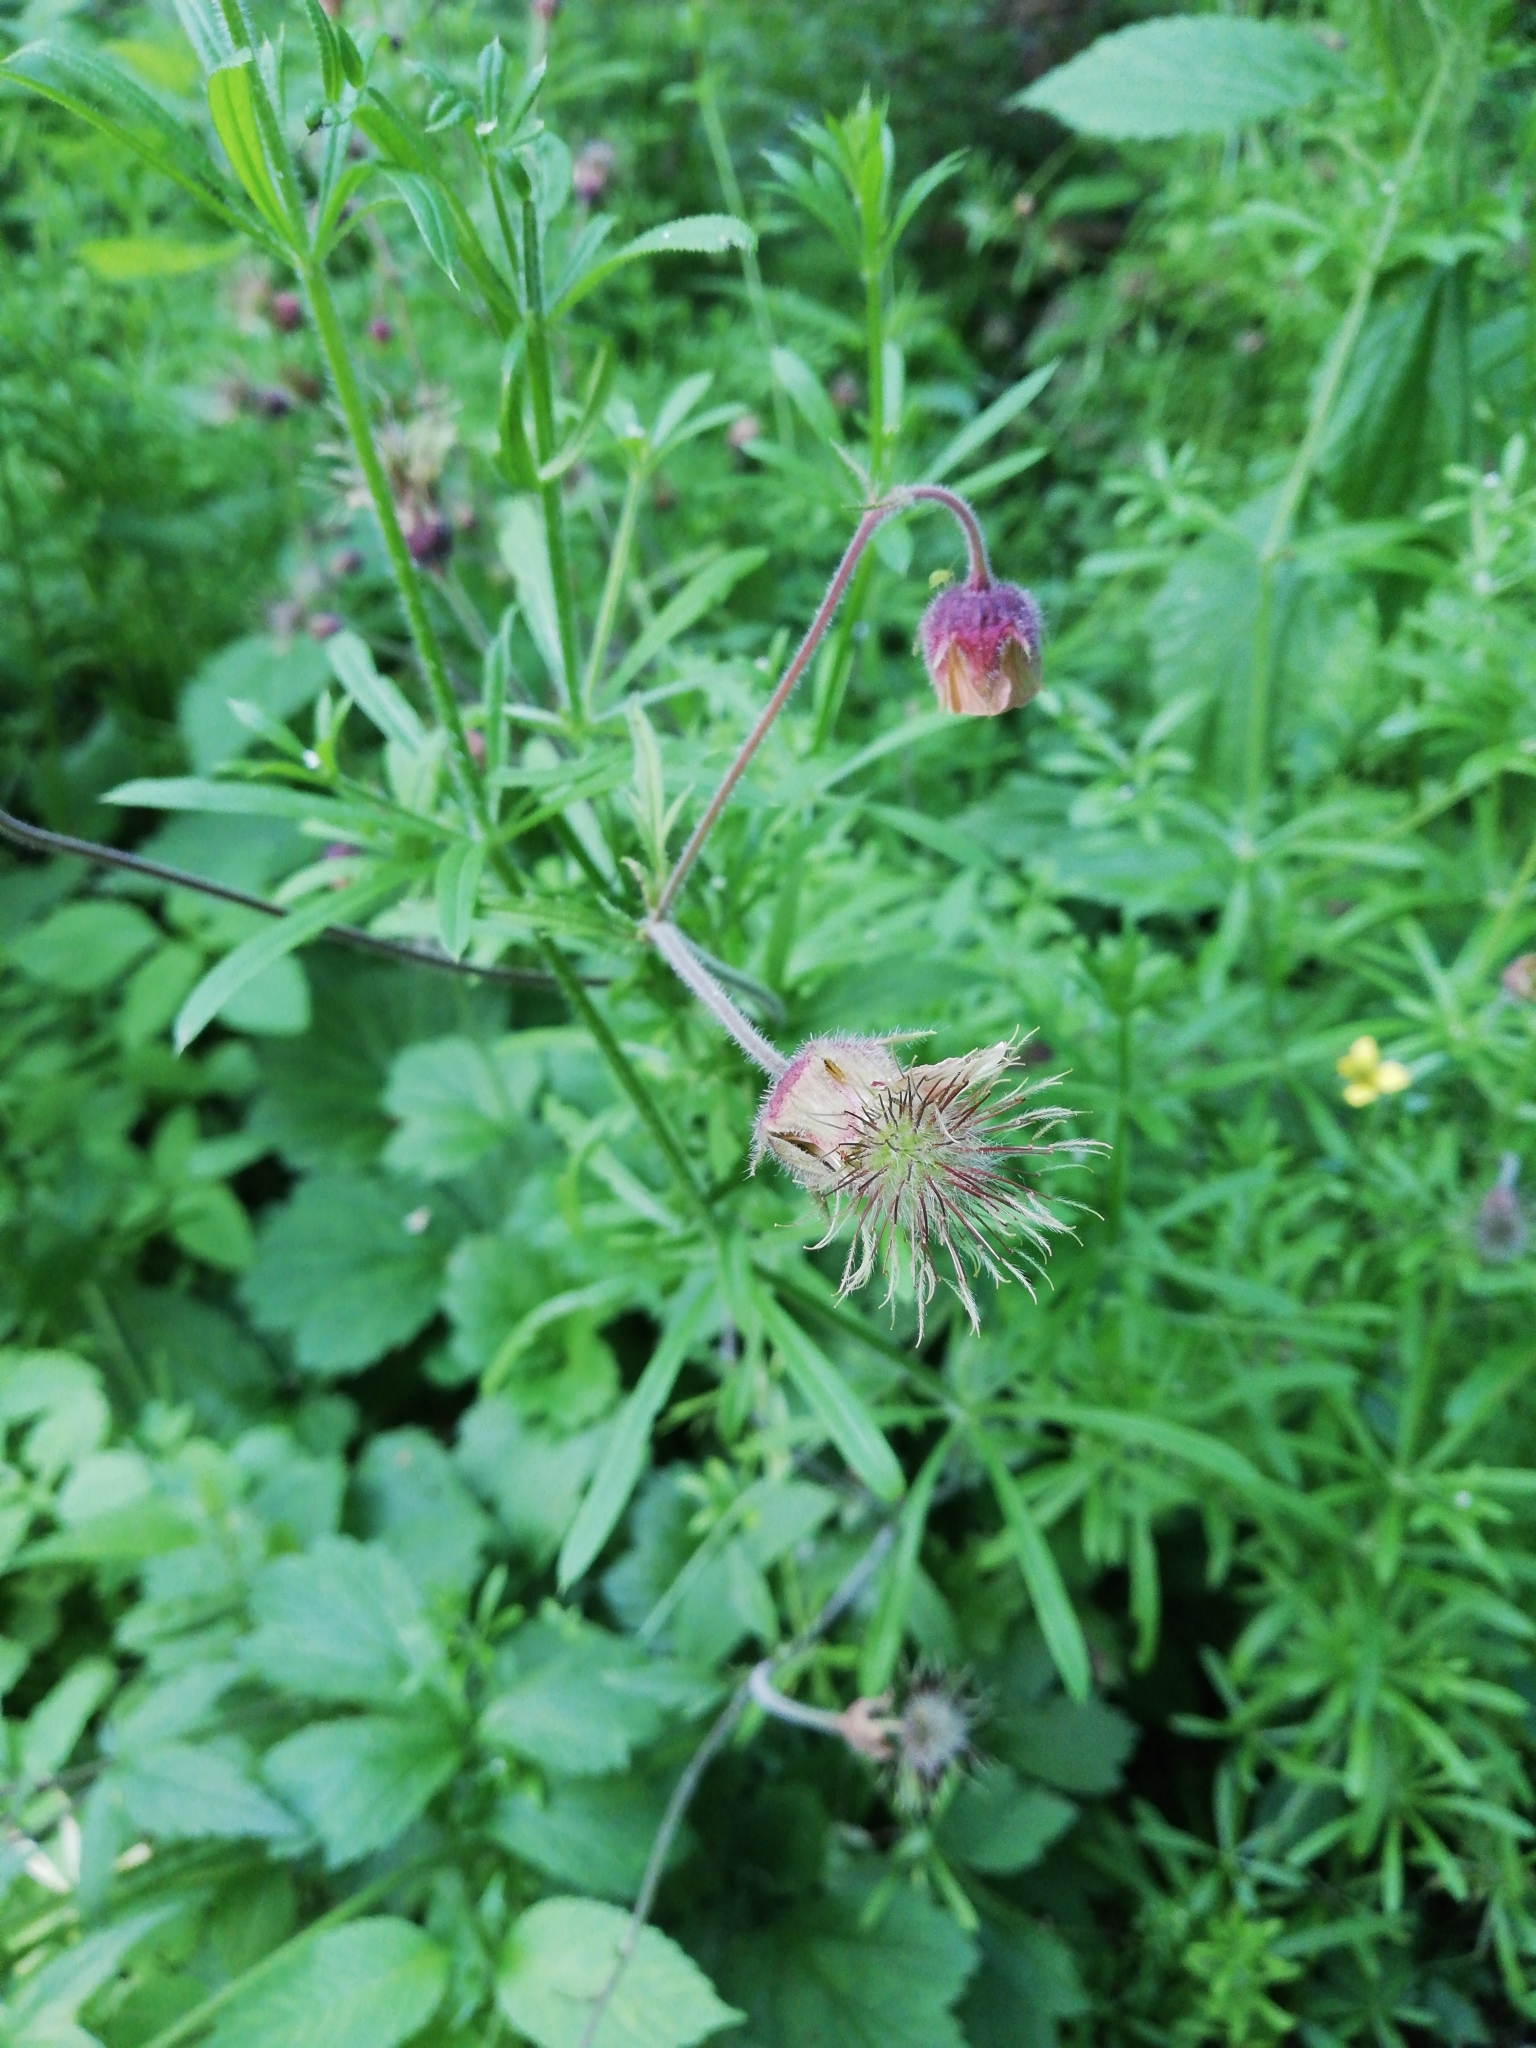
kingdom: Plantae
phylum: Tracheophyta
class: Magnoliopsida
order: Rosales
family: Rosaceae
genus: Geum
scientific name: Geum rivale
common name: Water avens
